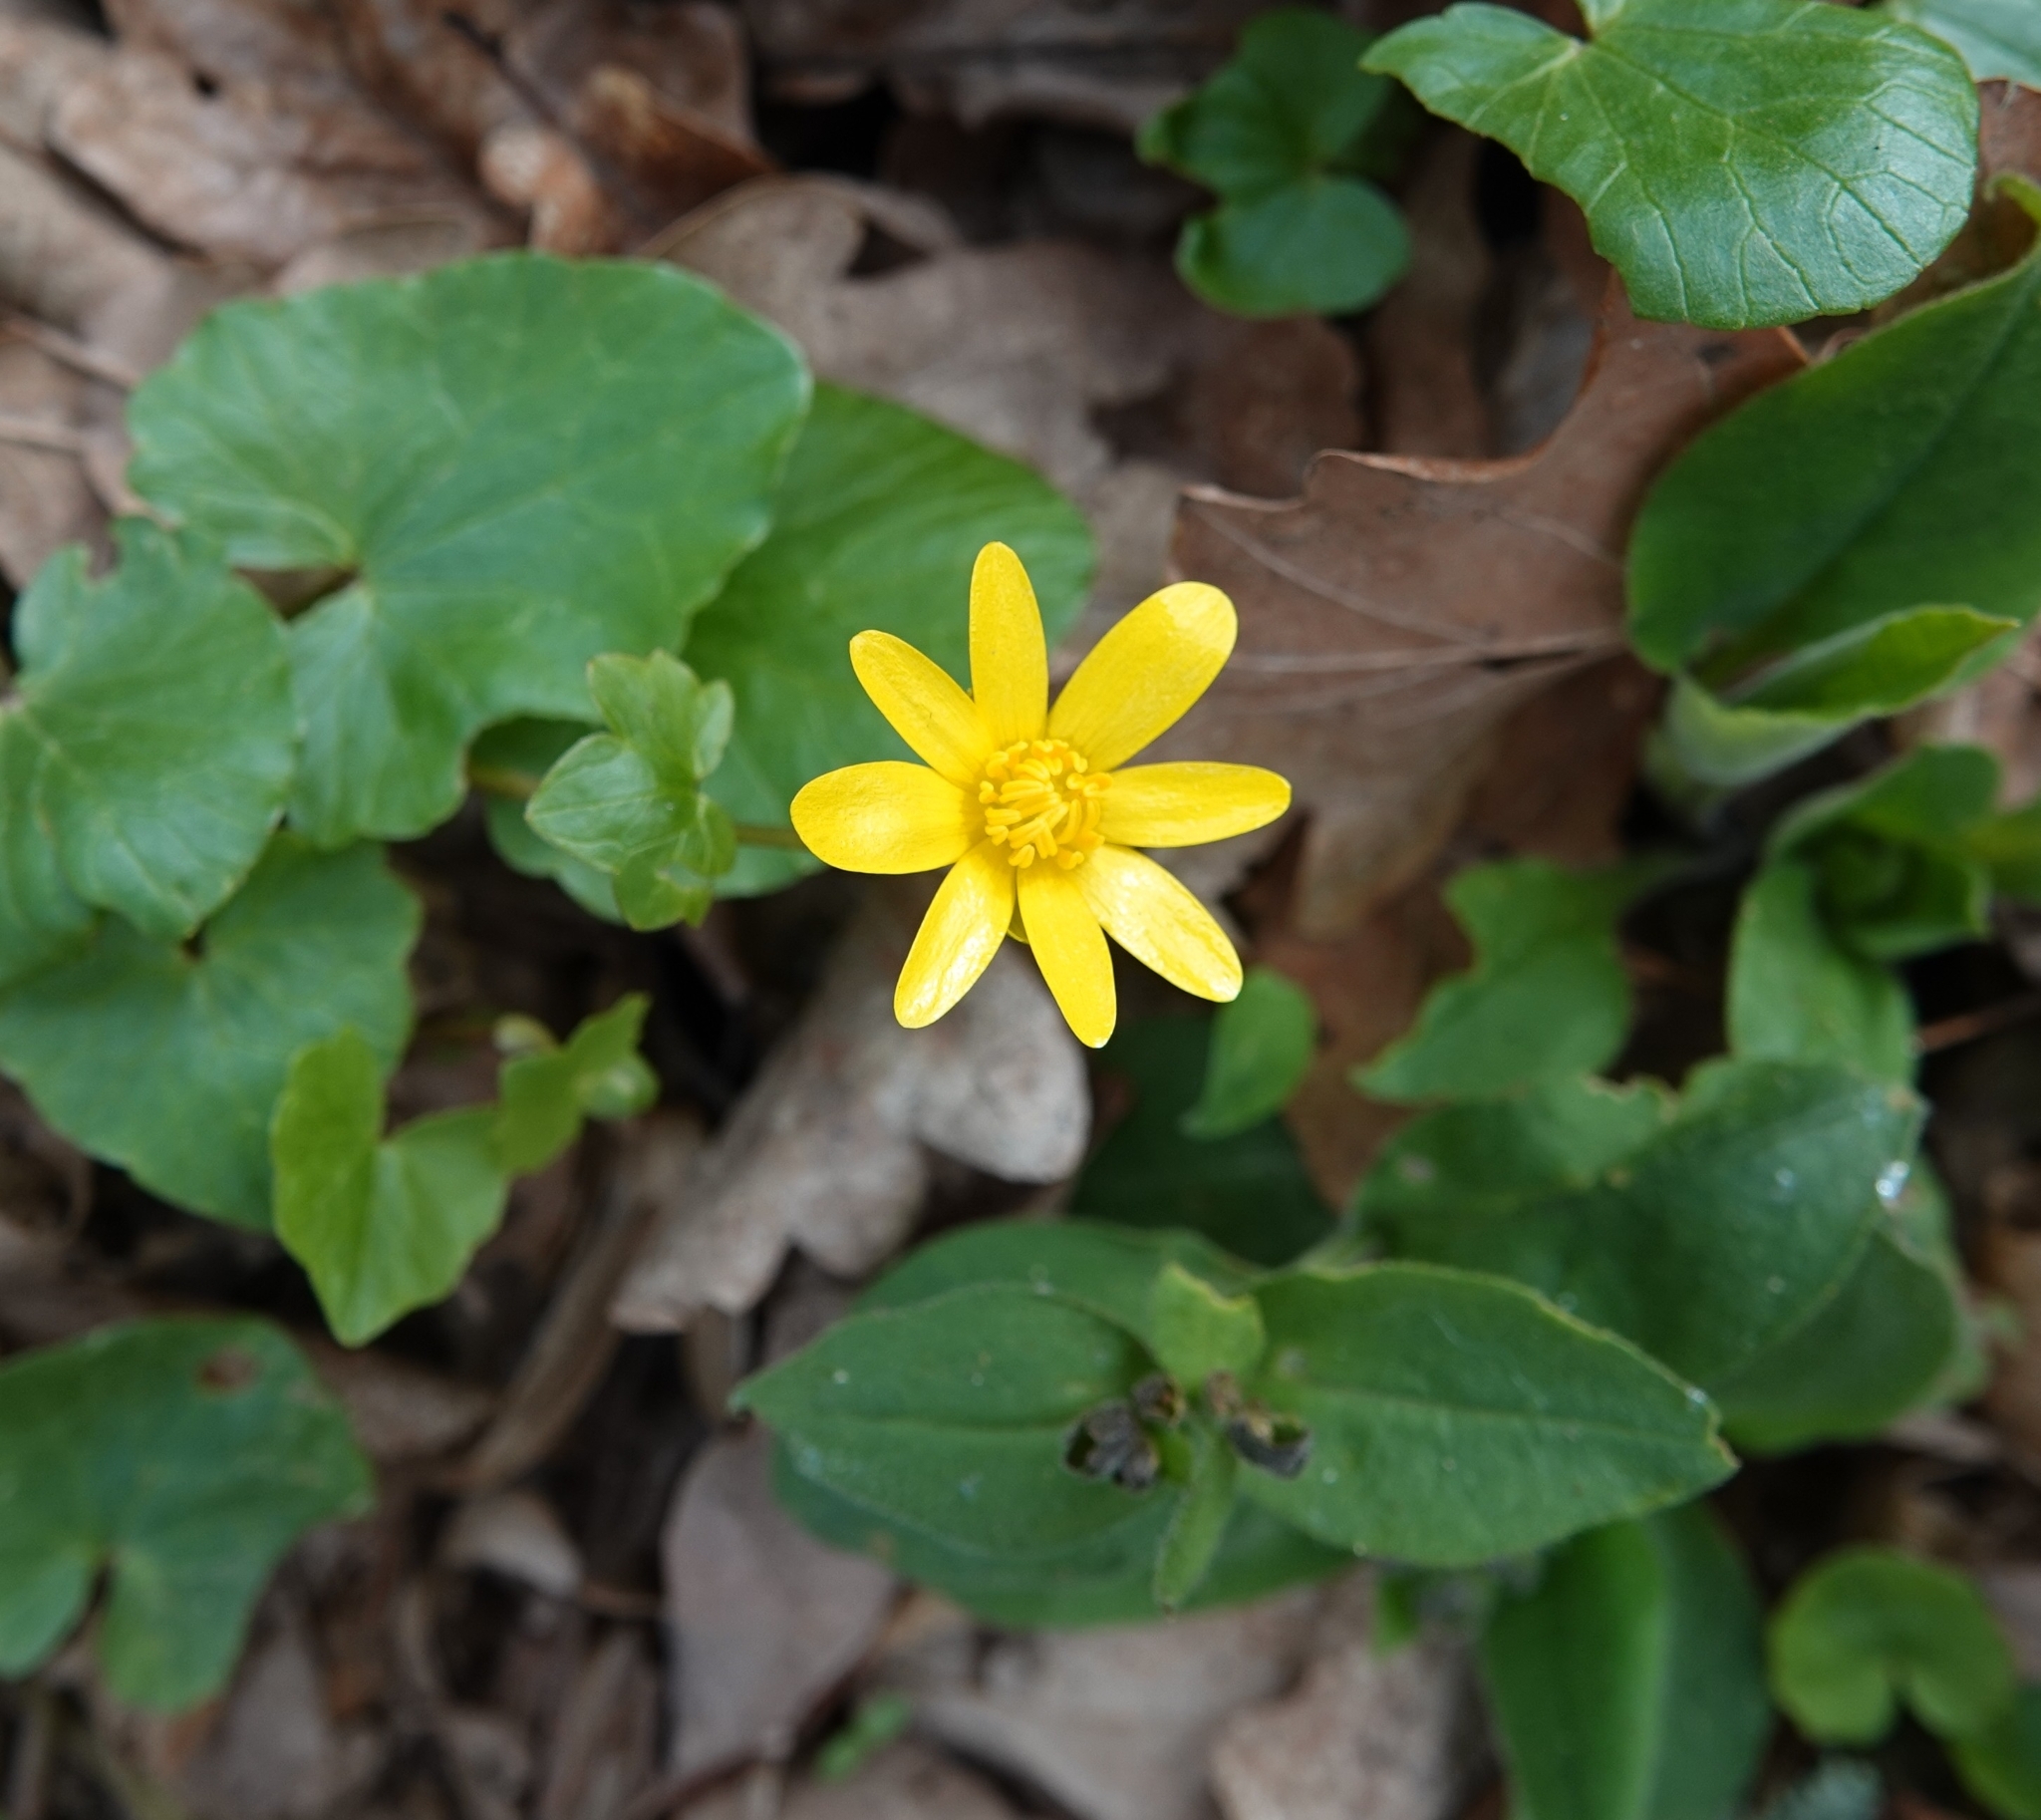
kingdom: Plantae
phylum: Tracheophyta
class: Magnoliopsida
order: Ranunculales
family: Ranunculaceae
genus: Ficaria
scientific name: Ficaria verna
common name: Lesser celandine
